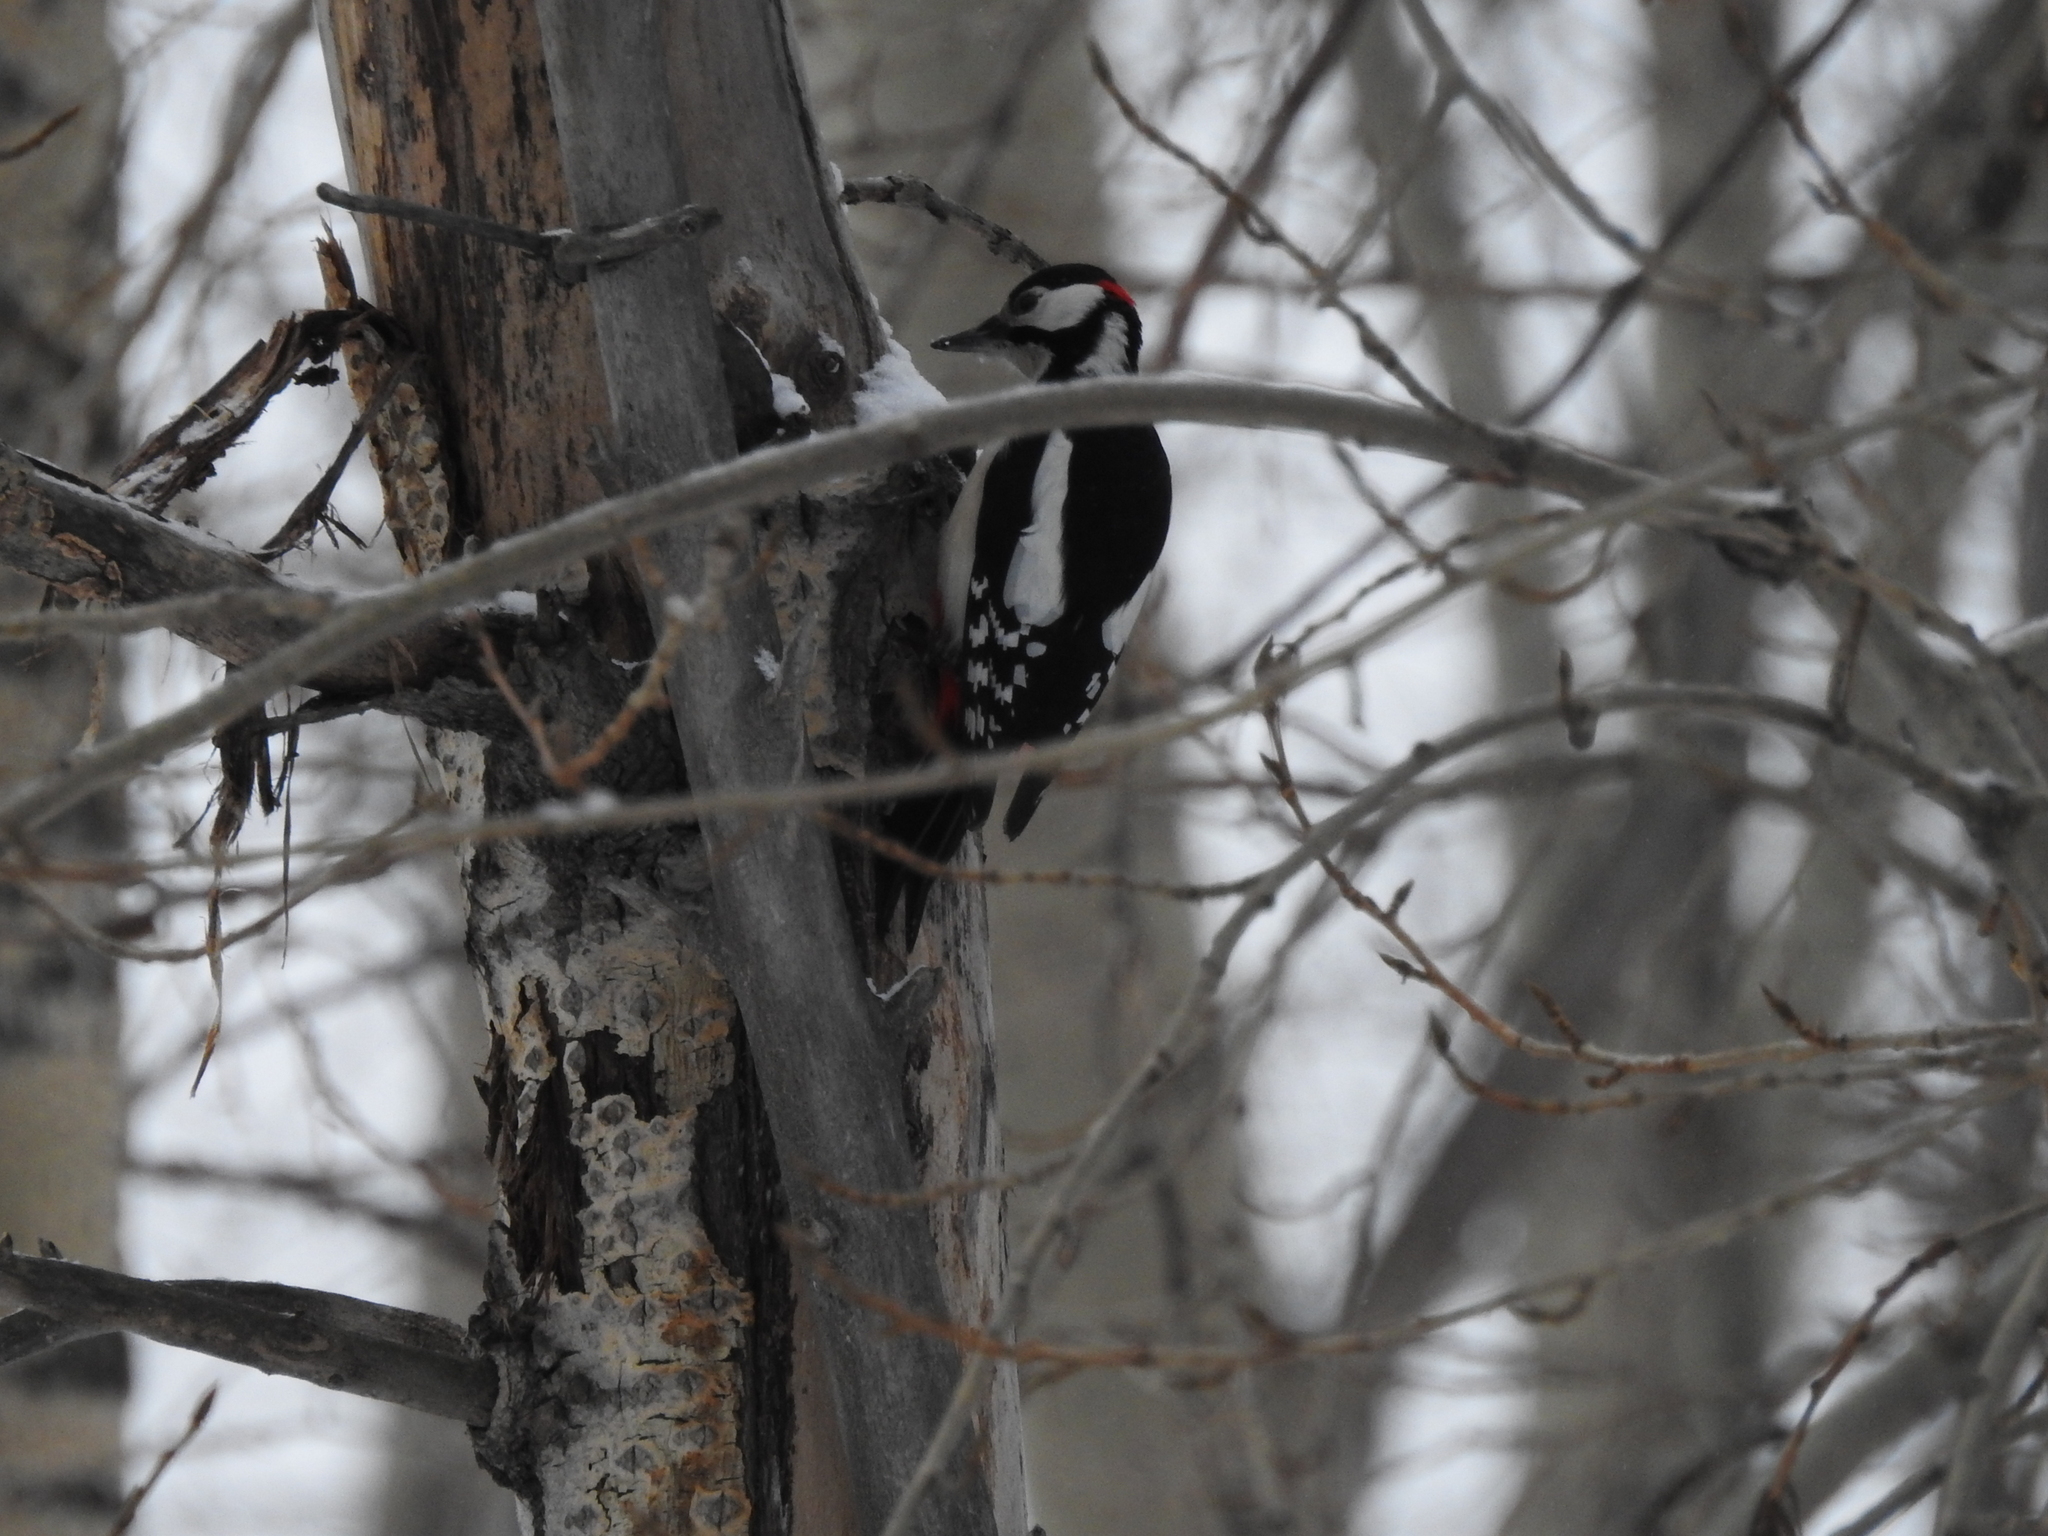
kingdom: Animalia
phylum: Chordata
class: Aves
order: Piciformes
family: Picidae
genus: Dendrocopos
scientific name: Dendrocopos major
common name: Great spotted woodpecker
